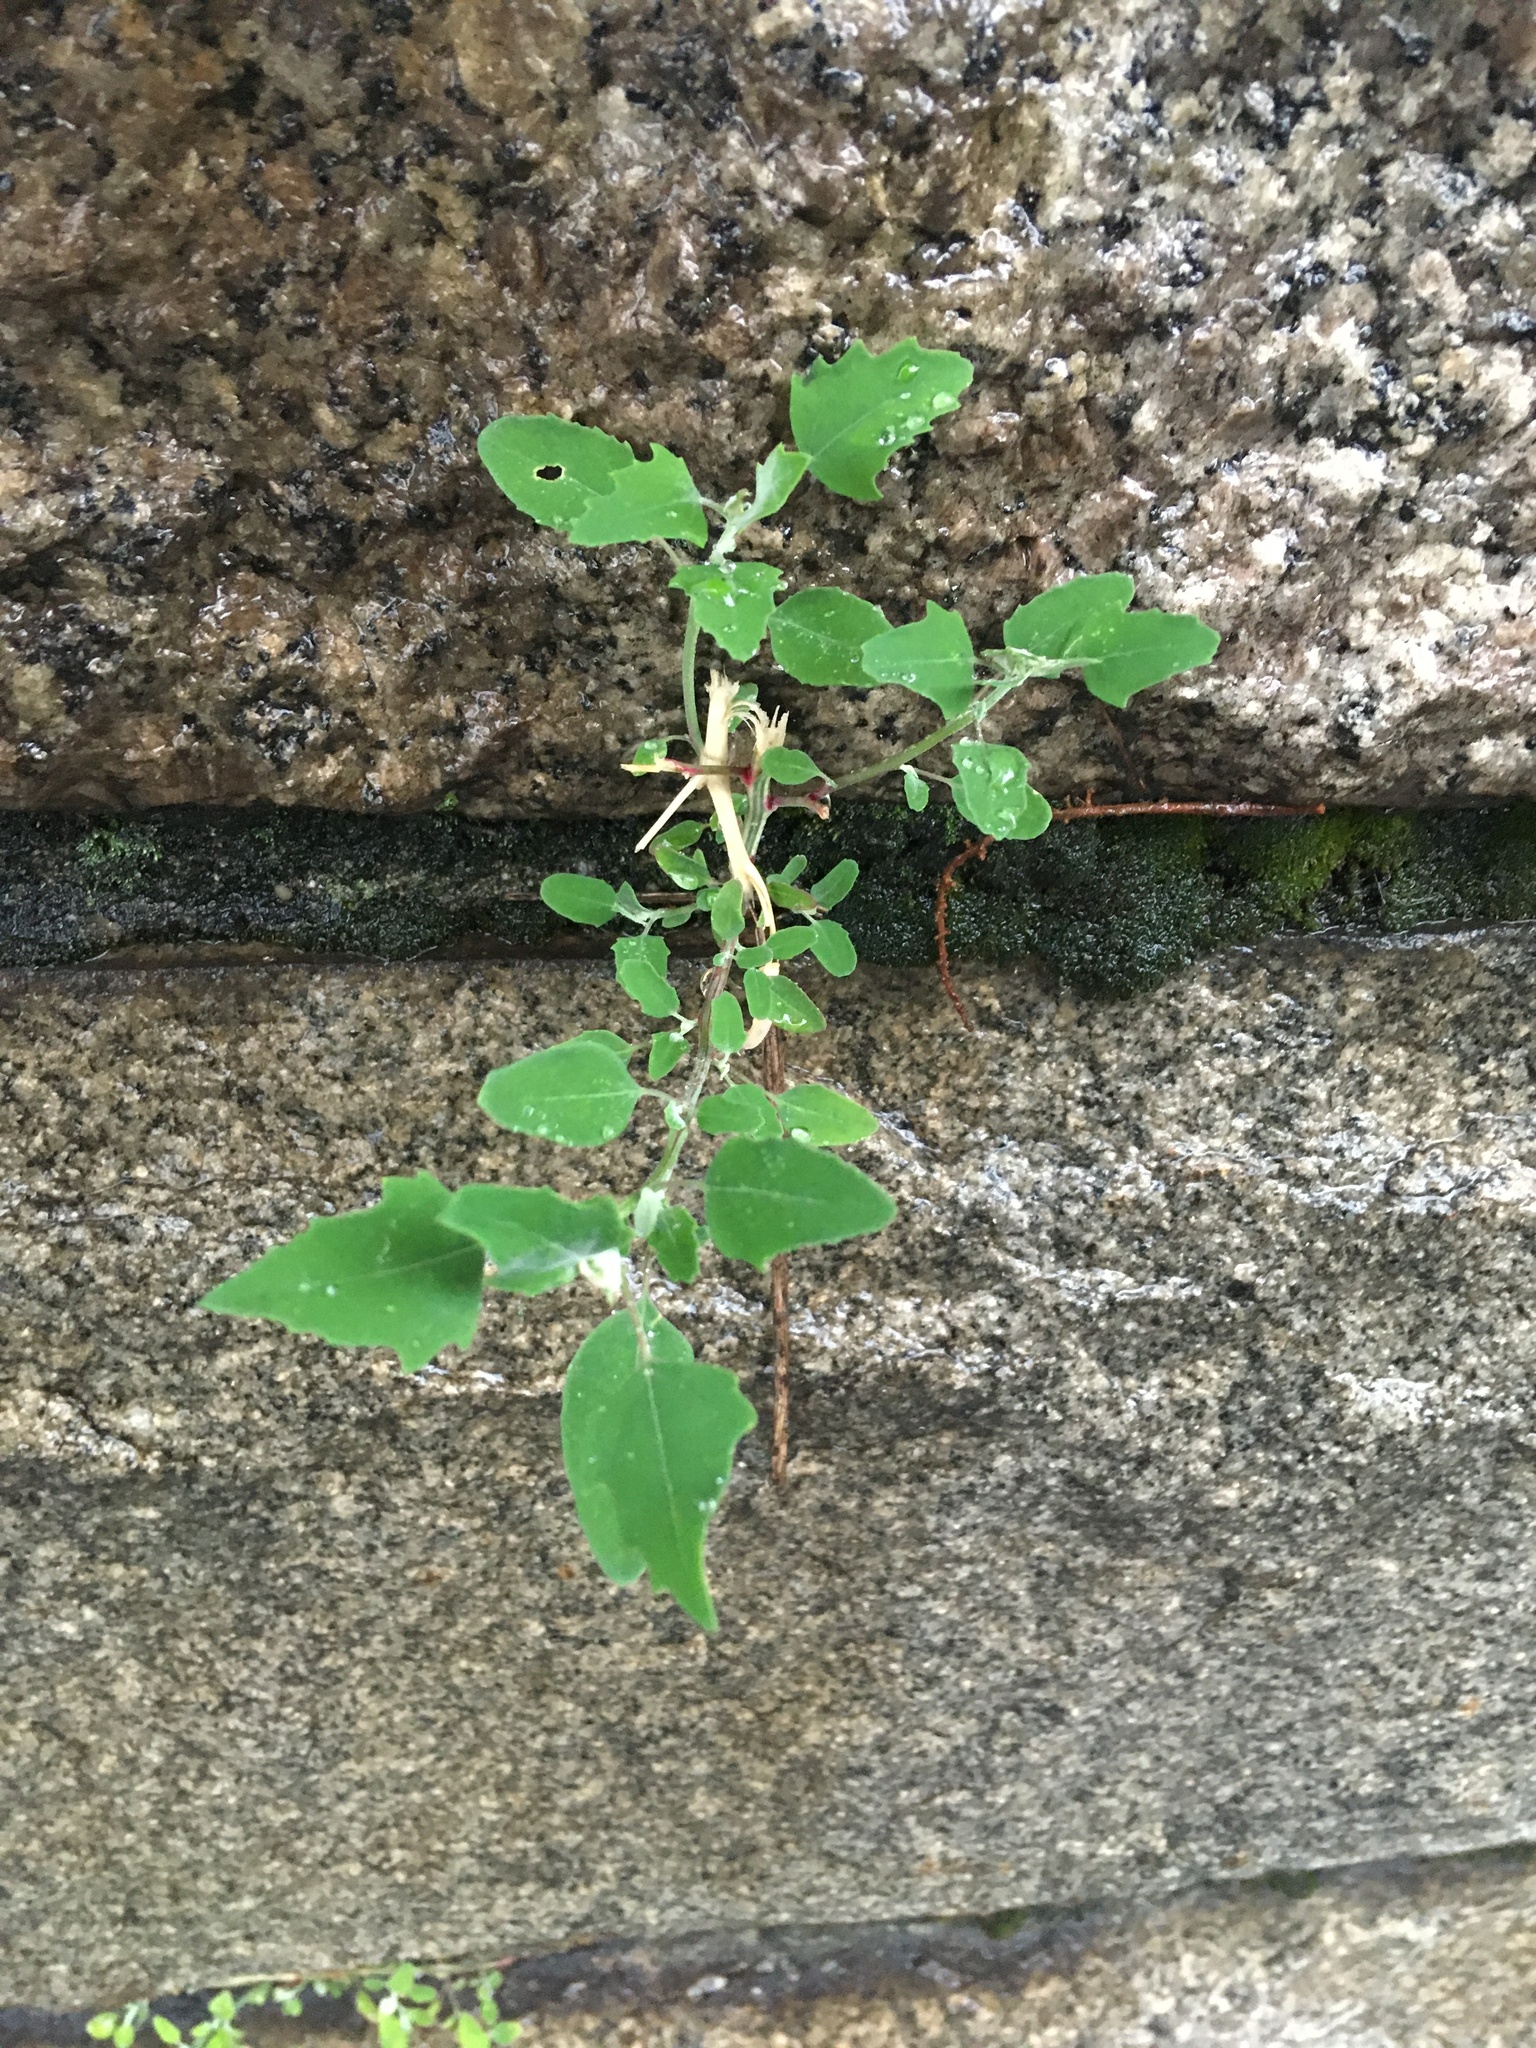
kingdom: Plantae
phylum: Tracheophyta
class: Magnoliopsida
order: Caryophyllales
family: Amaranthaceae
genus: Chenopodium
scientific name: Chenopodium album
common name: Fat-hen
